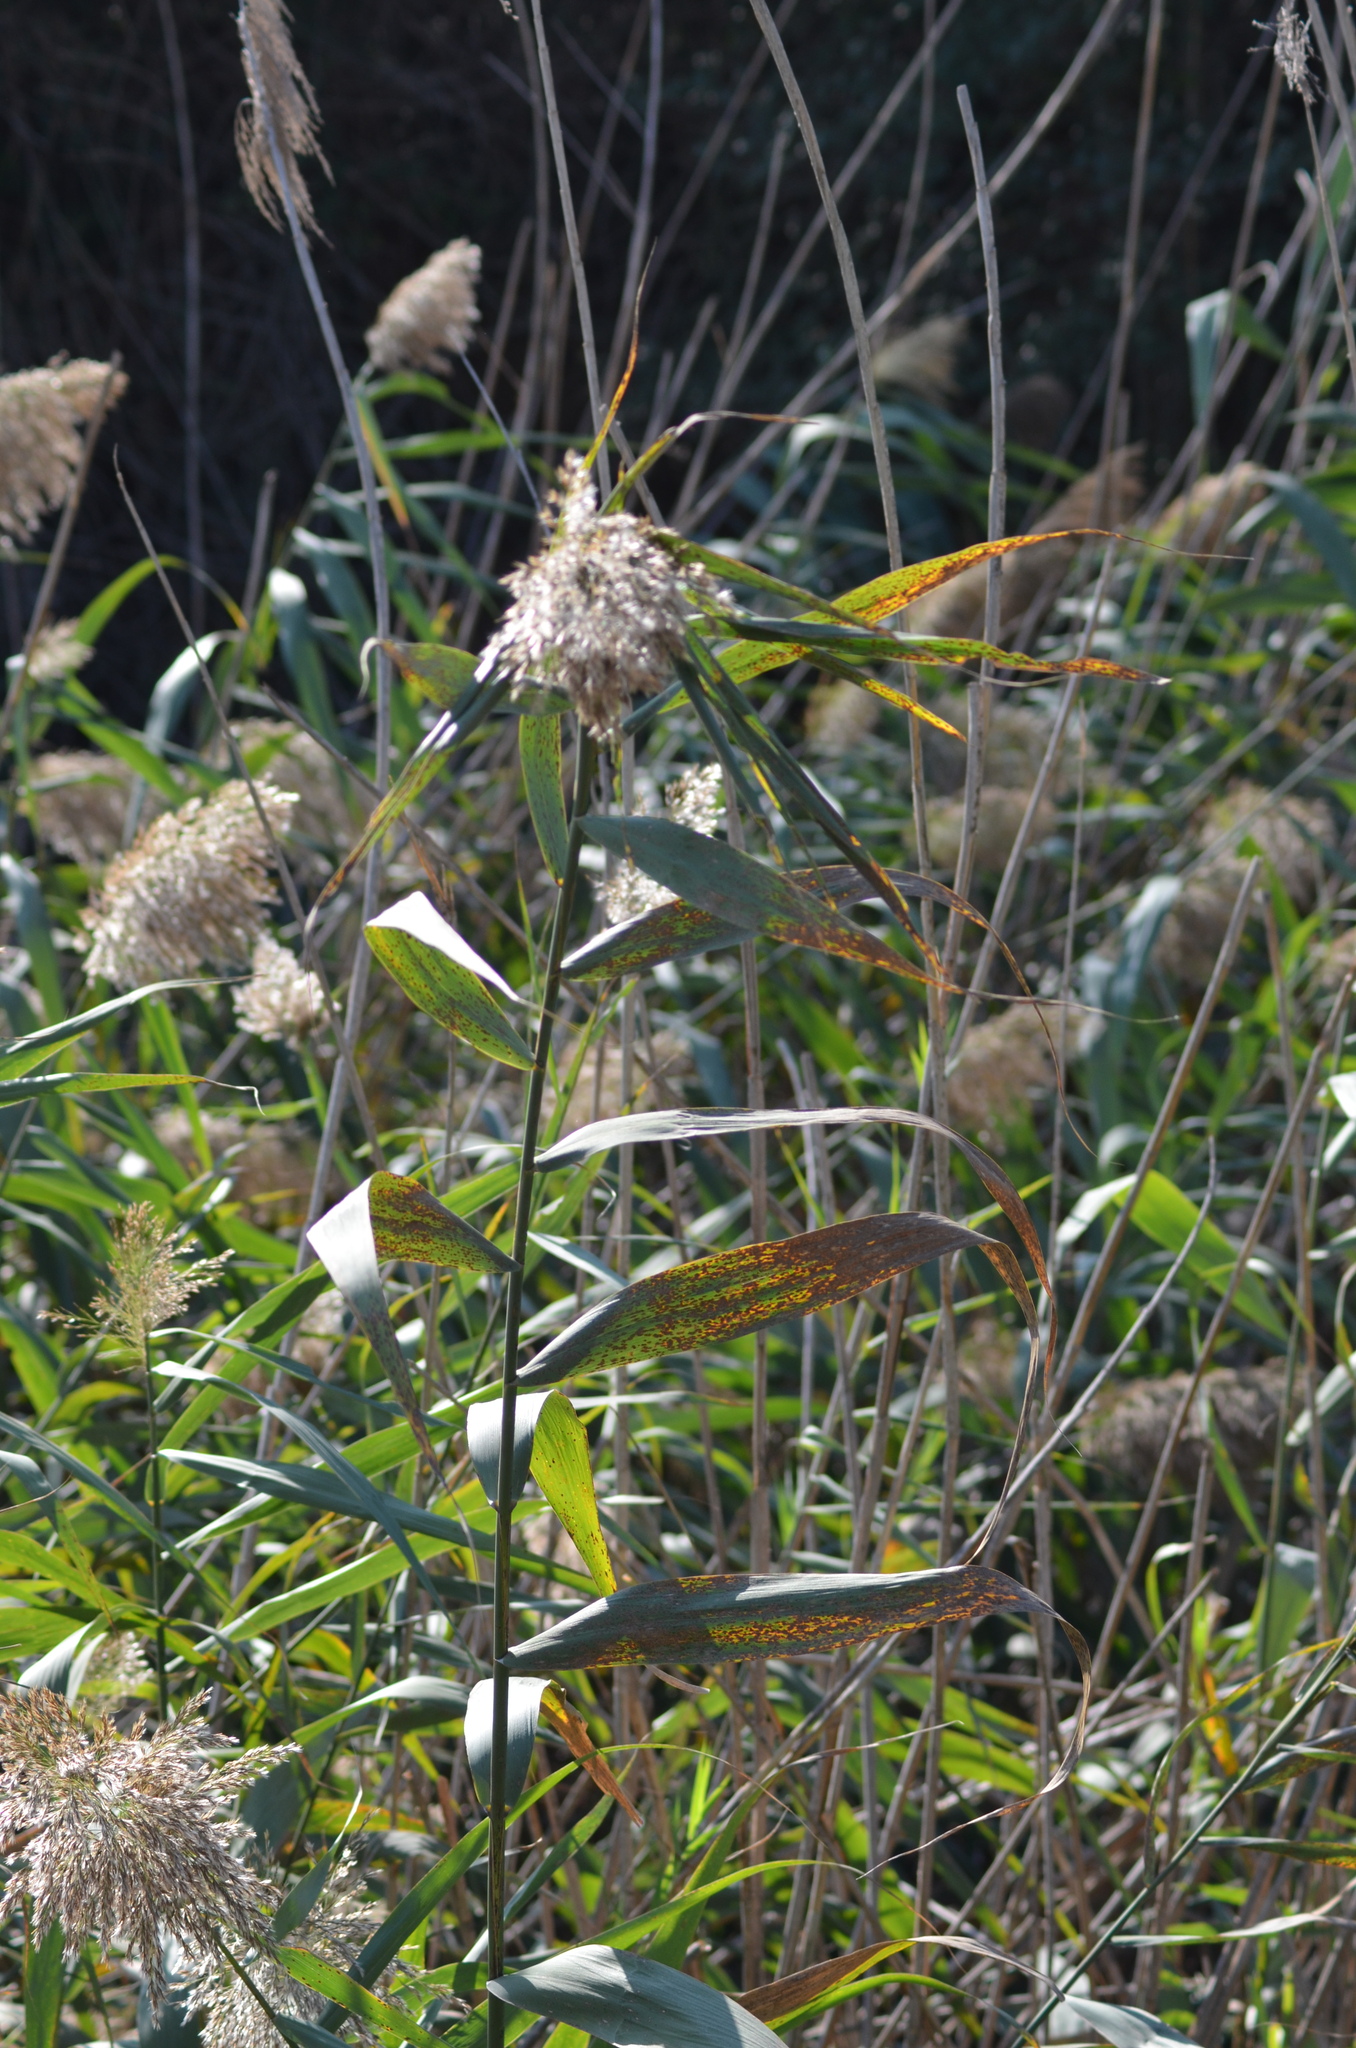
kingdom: Plantae
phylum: Tracheophyta
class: Liliopsida
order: Poales
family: Poaceae
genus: Phragmites
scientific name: Phragmites australis
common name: Common reed
